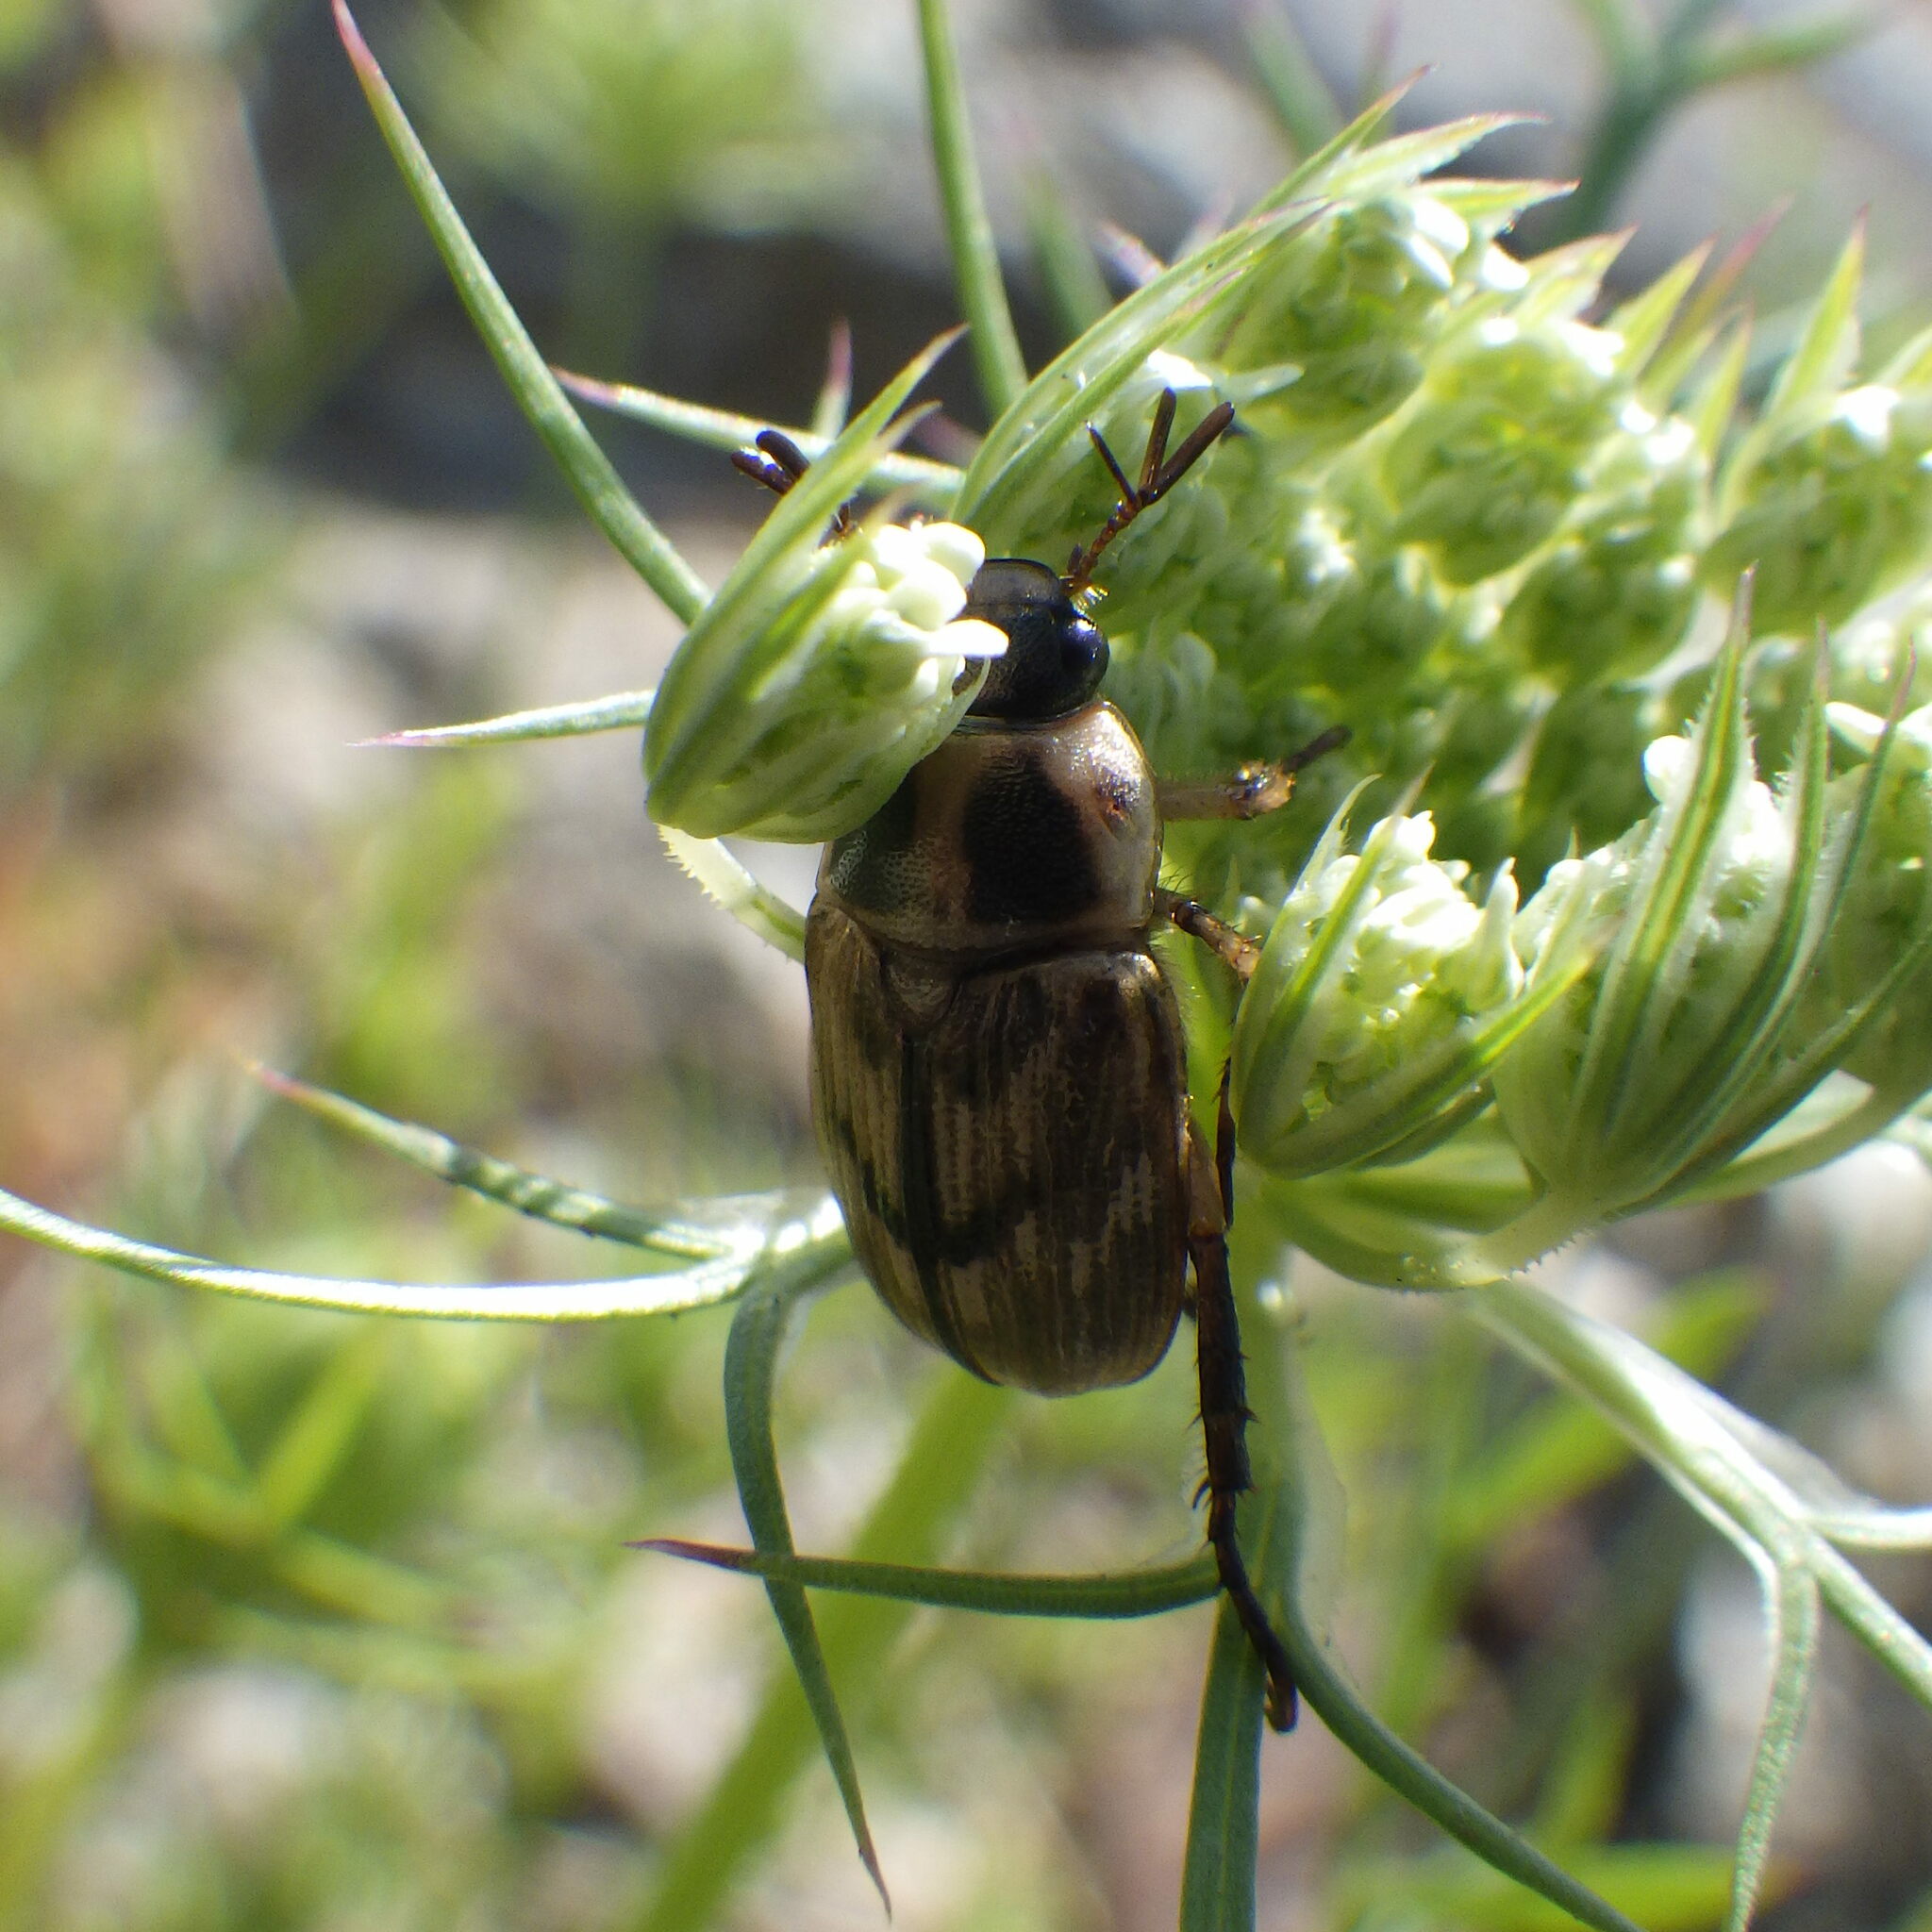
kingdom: Animalia
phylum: Arthropoda
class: Insecta
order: Coleoptera
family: Scarabaeidae
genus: Exomala
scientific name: Exomala orientalis
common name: Oriental beetle
